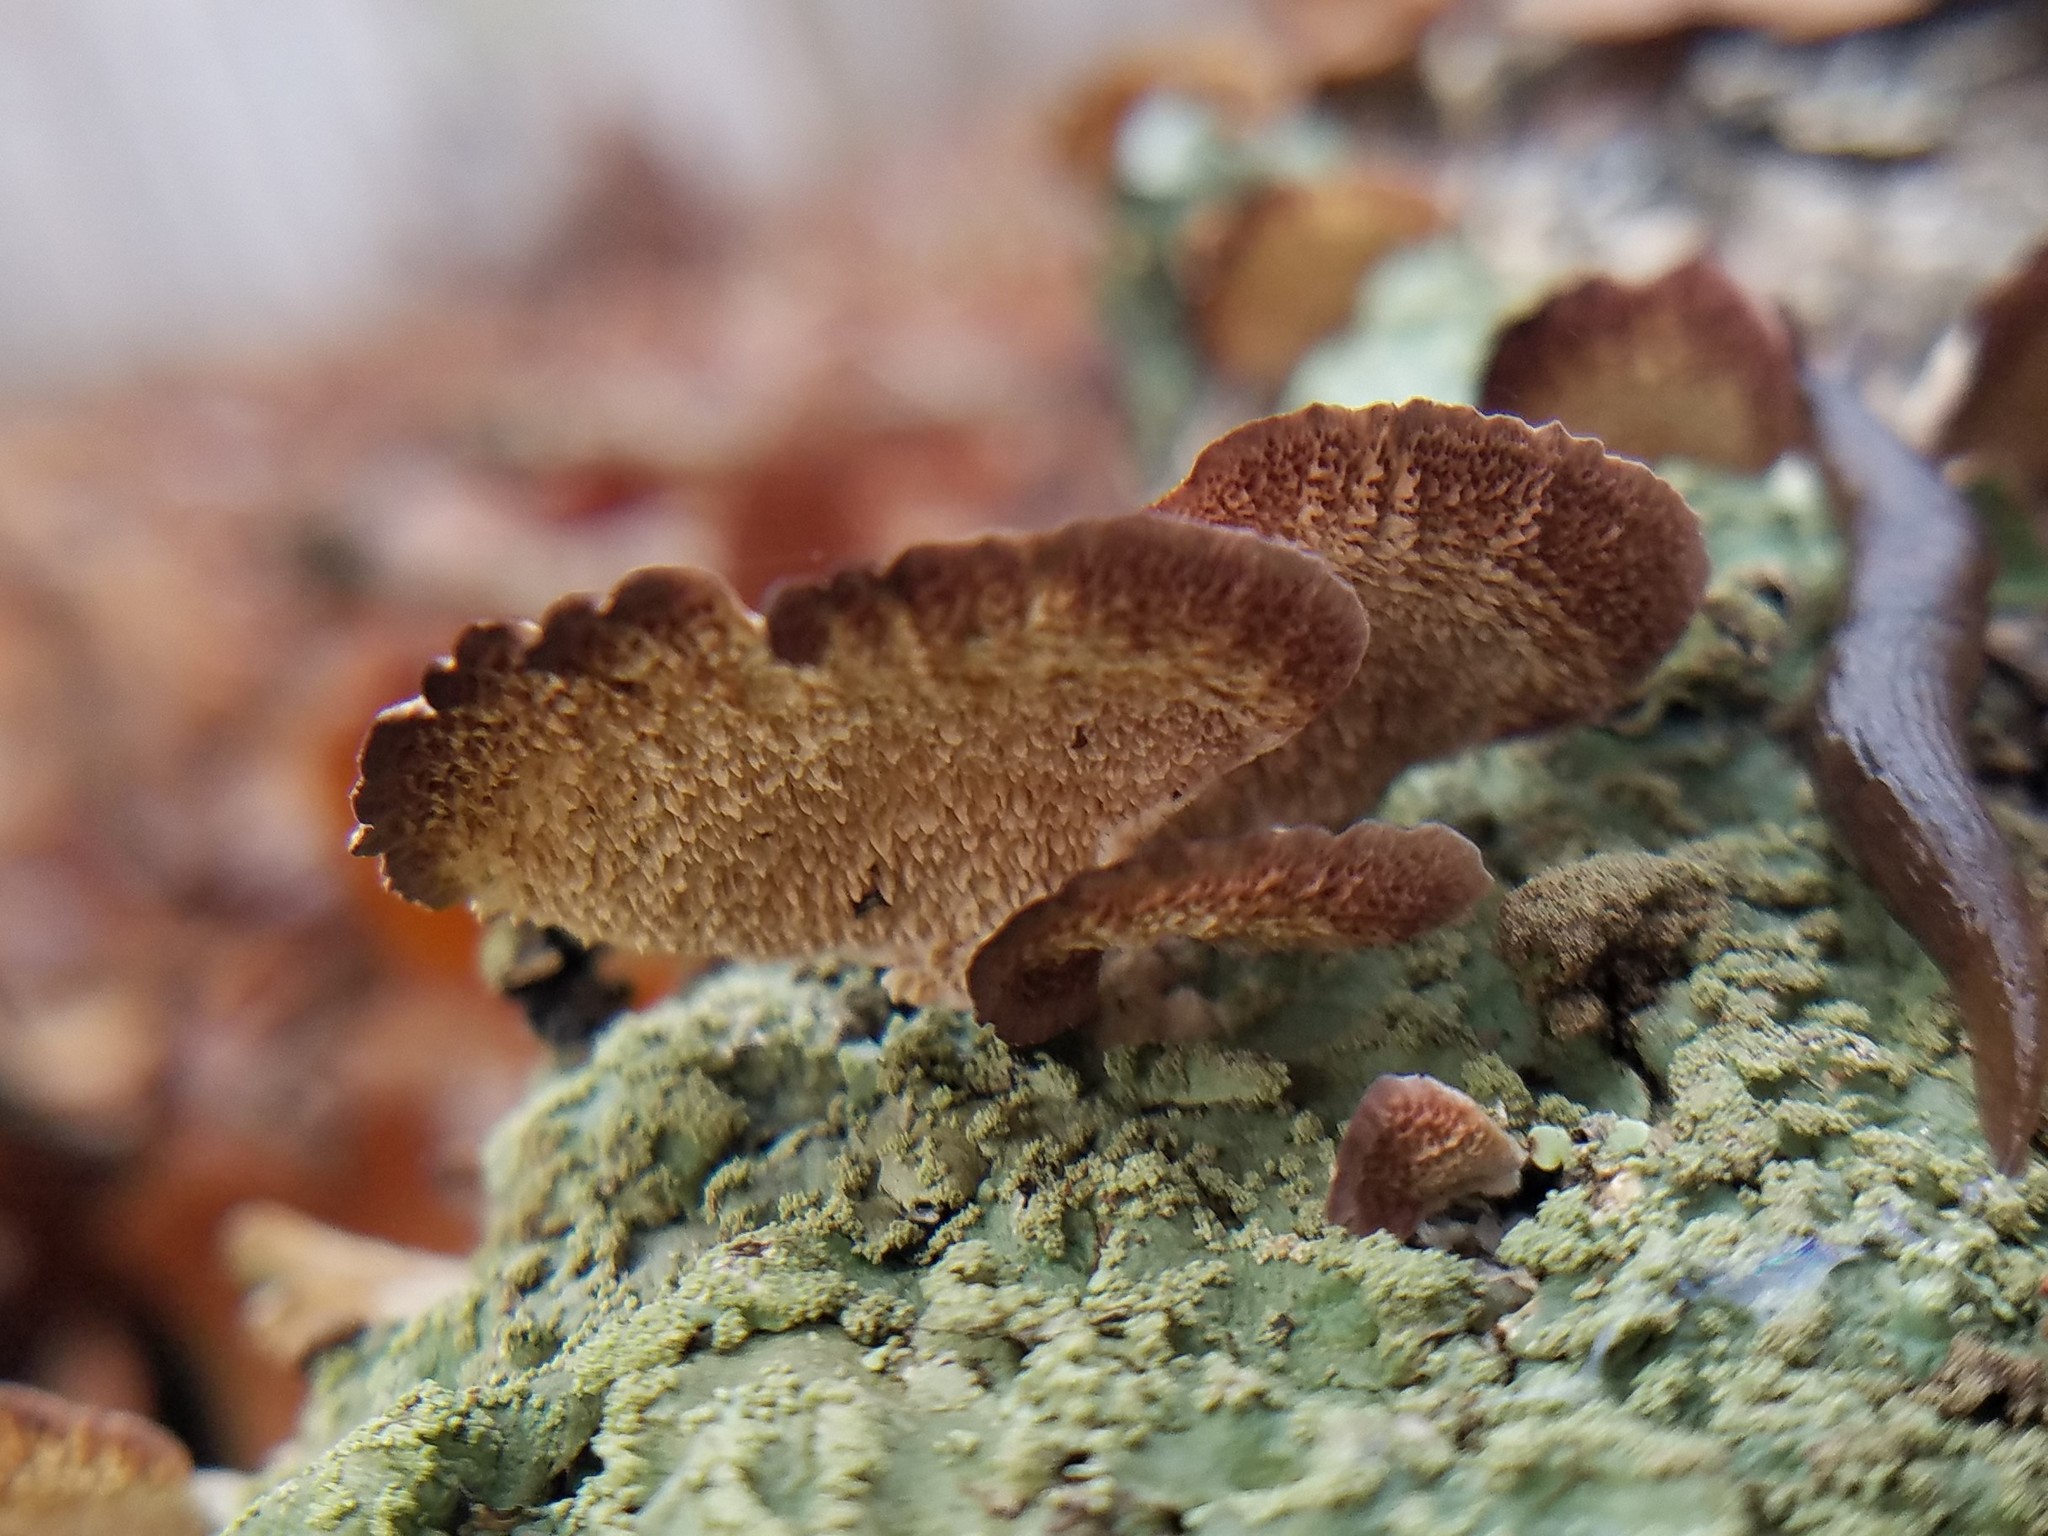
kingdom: Fungi
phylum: Basidiomycota
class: Agaricomycetes
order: Hymenochaetales
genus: Trichaptum
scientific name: Trichaptum biforme
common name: Violet-toothed polypore
